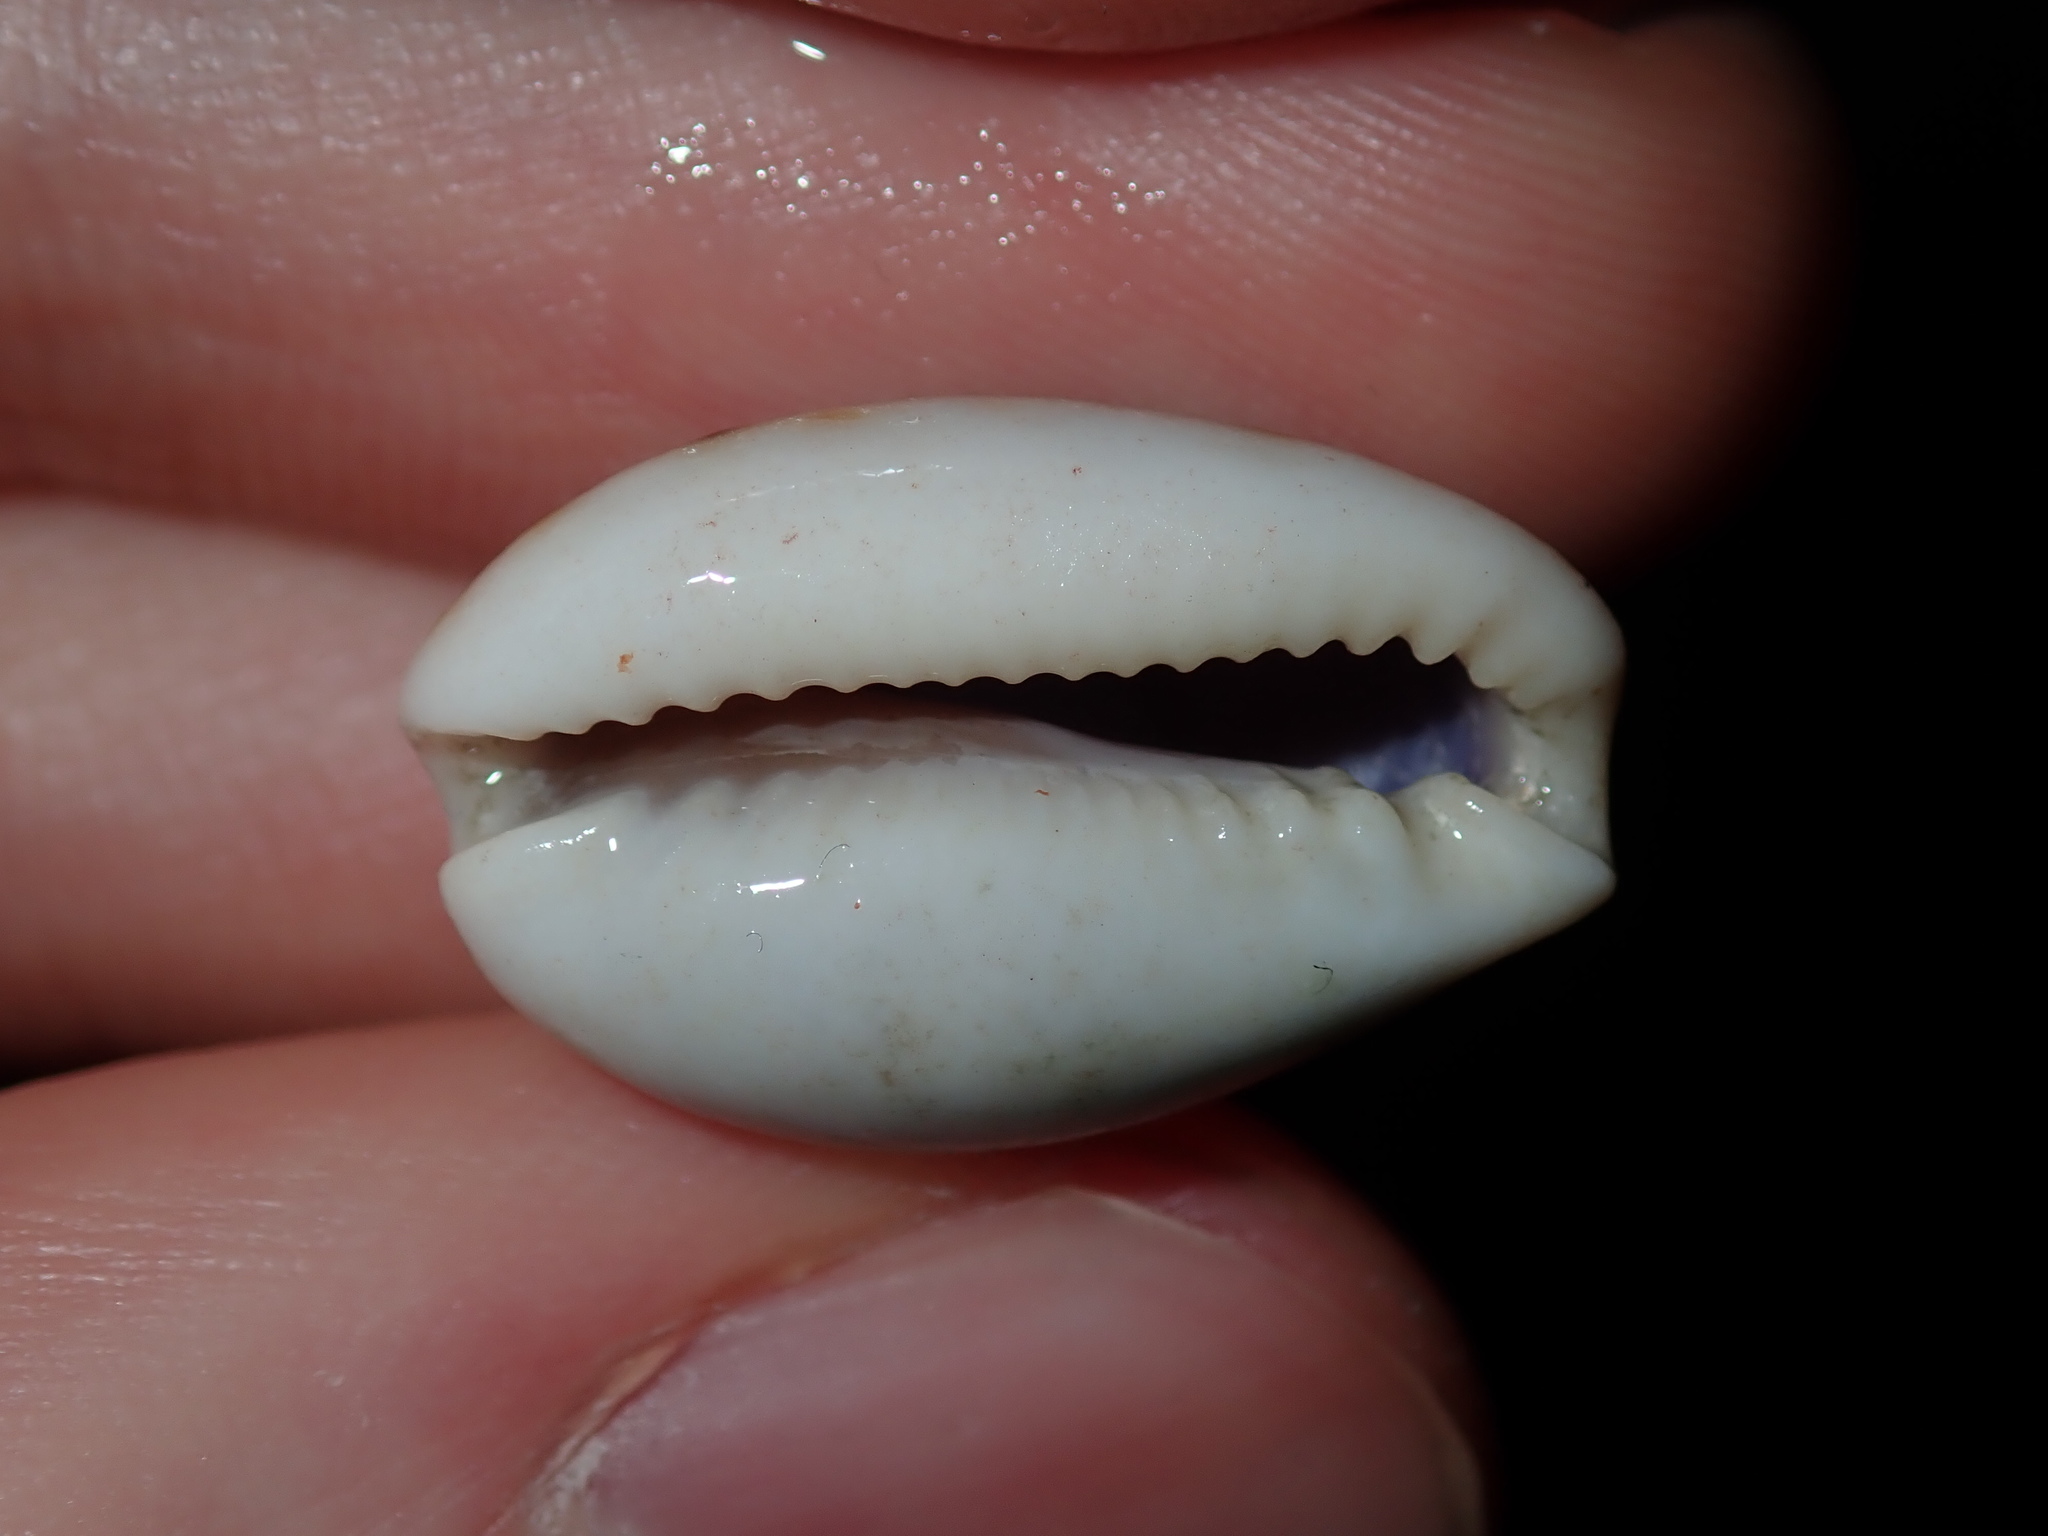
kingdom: Animalia
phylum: Mollusca
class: Gastropoda
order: Littorinimorpha
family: Cypraeidae
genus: Naria
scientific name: Naria labrolineata
